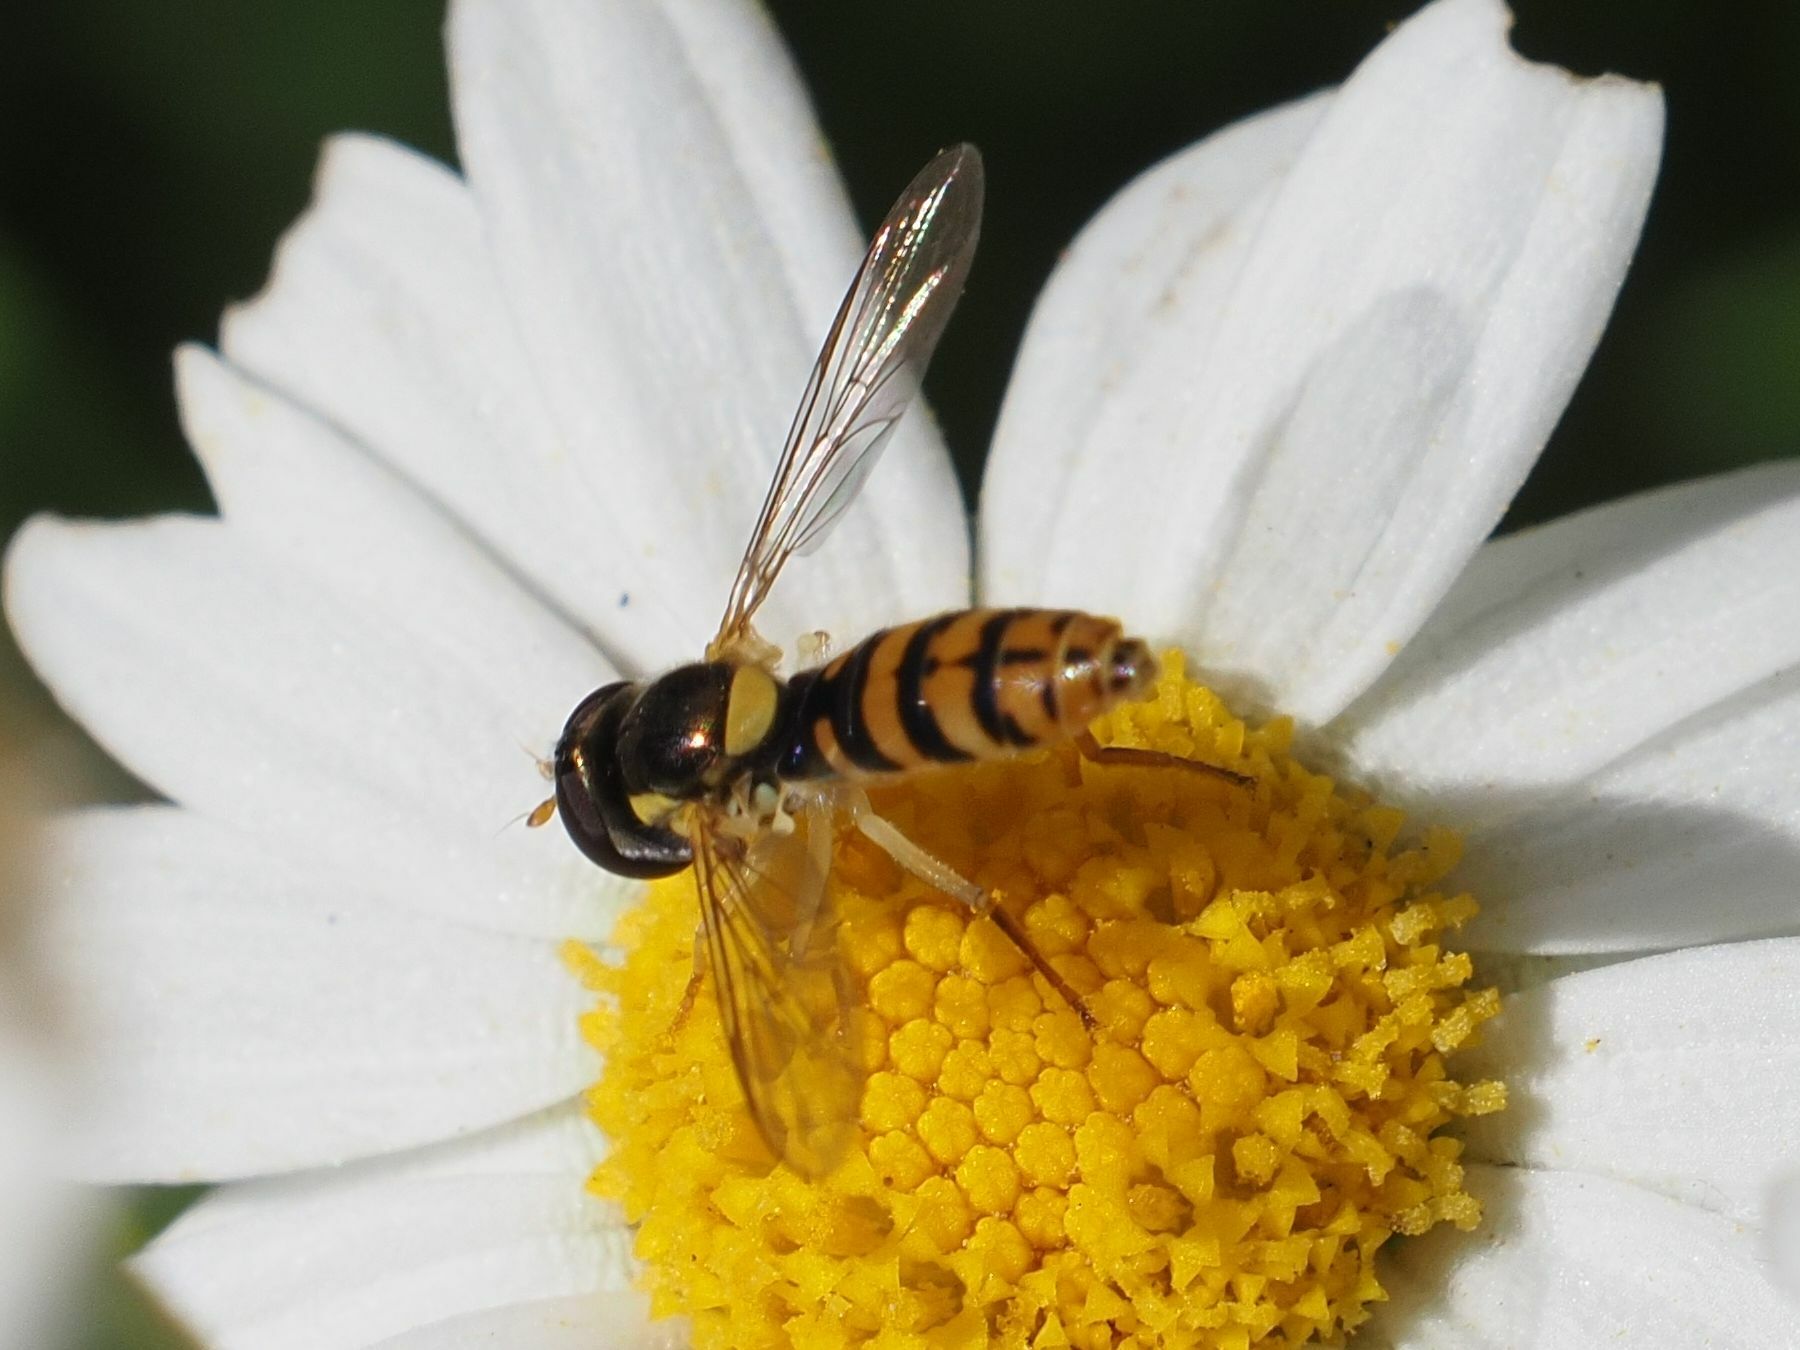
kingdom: Animalia
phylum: Arthropoda
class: Insecta
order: Diptera
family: Syrphidae
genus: Sphaerophoria
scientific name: Sphaerophoria rueppellii
